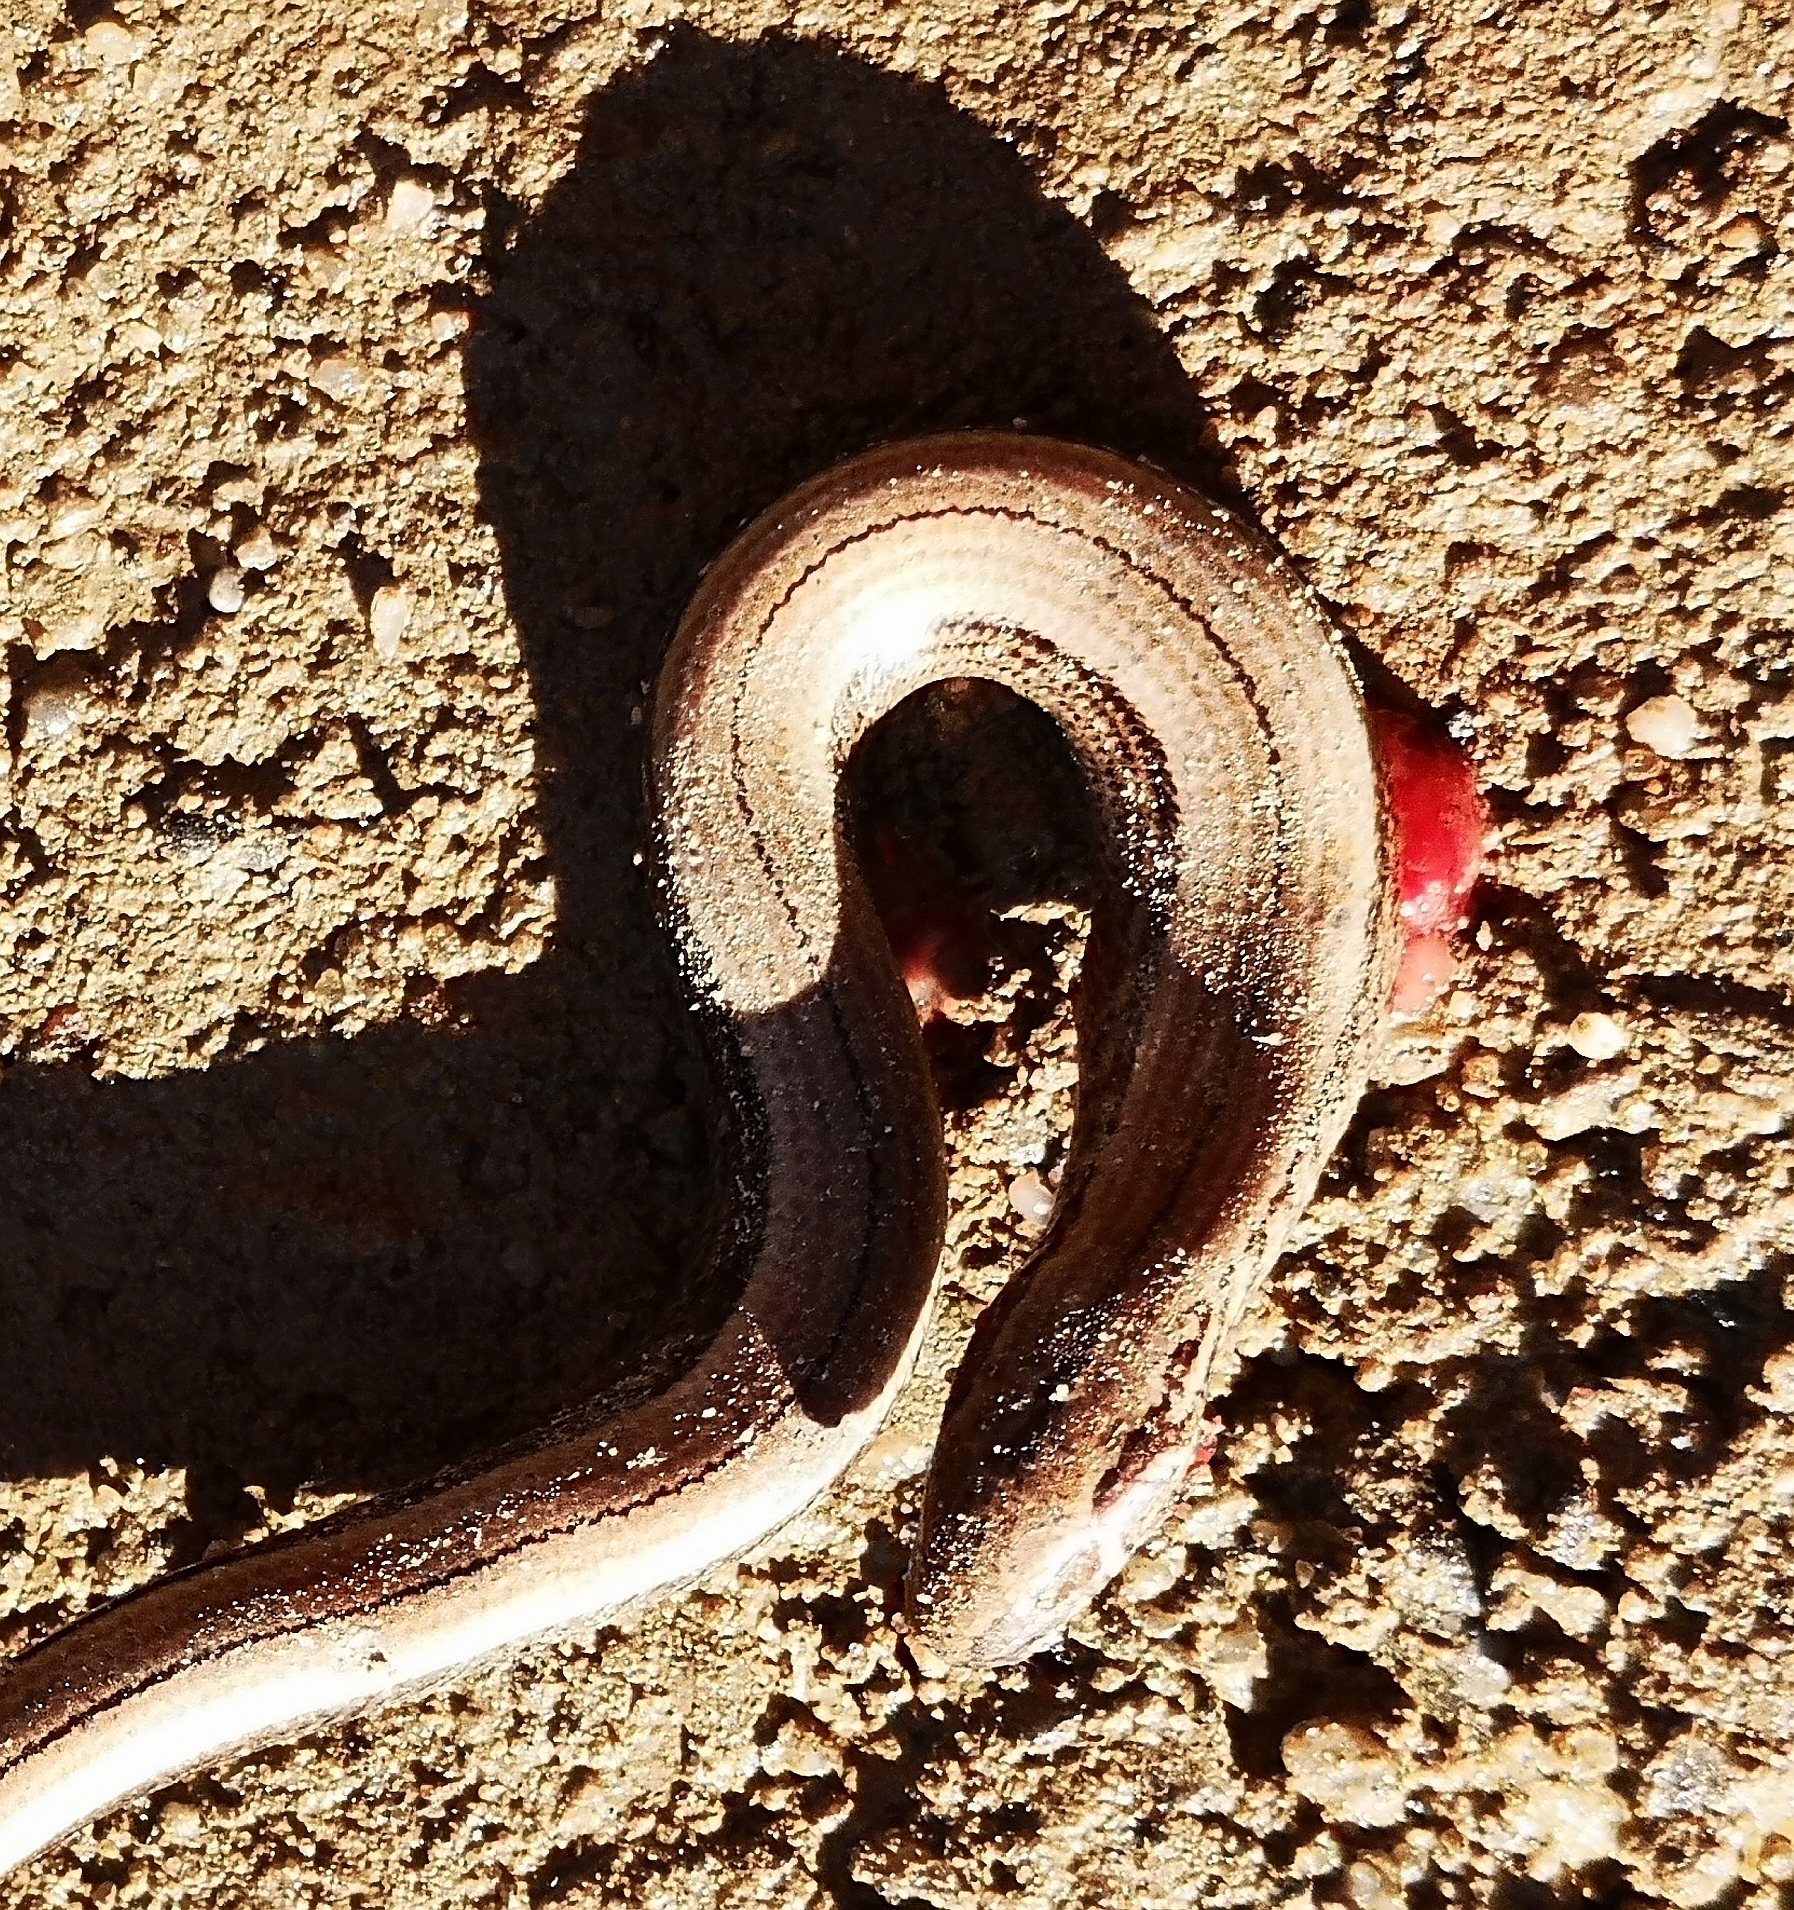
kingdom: Animalia
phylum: Chordata
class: Squamata
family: Anguidae
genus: Anguis
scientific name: Anguis fragilis
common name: Slow worm
